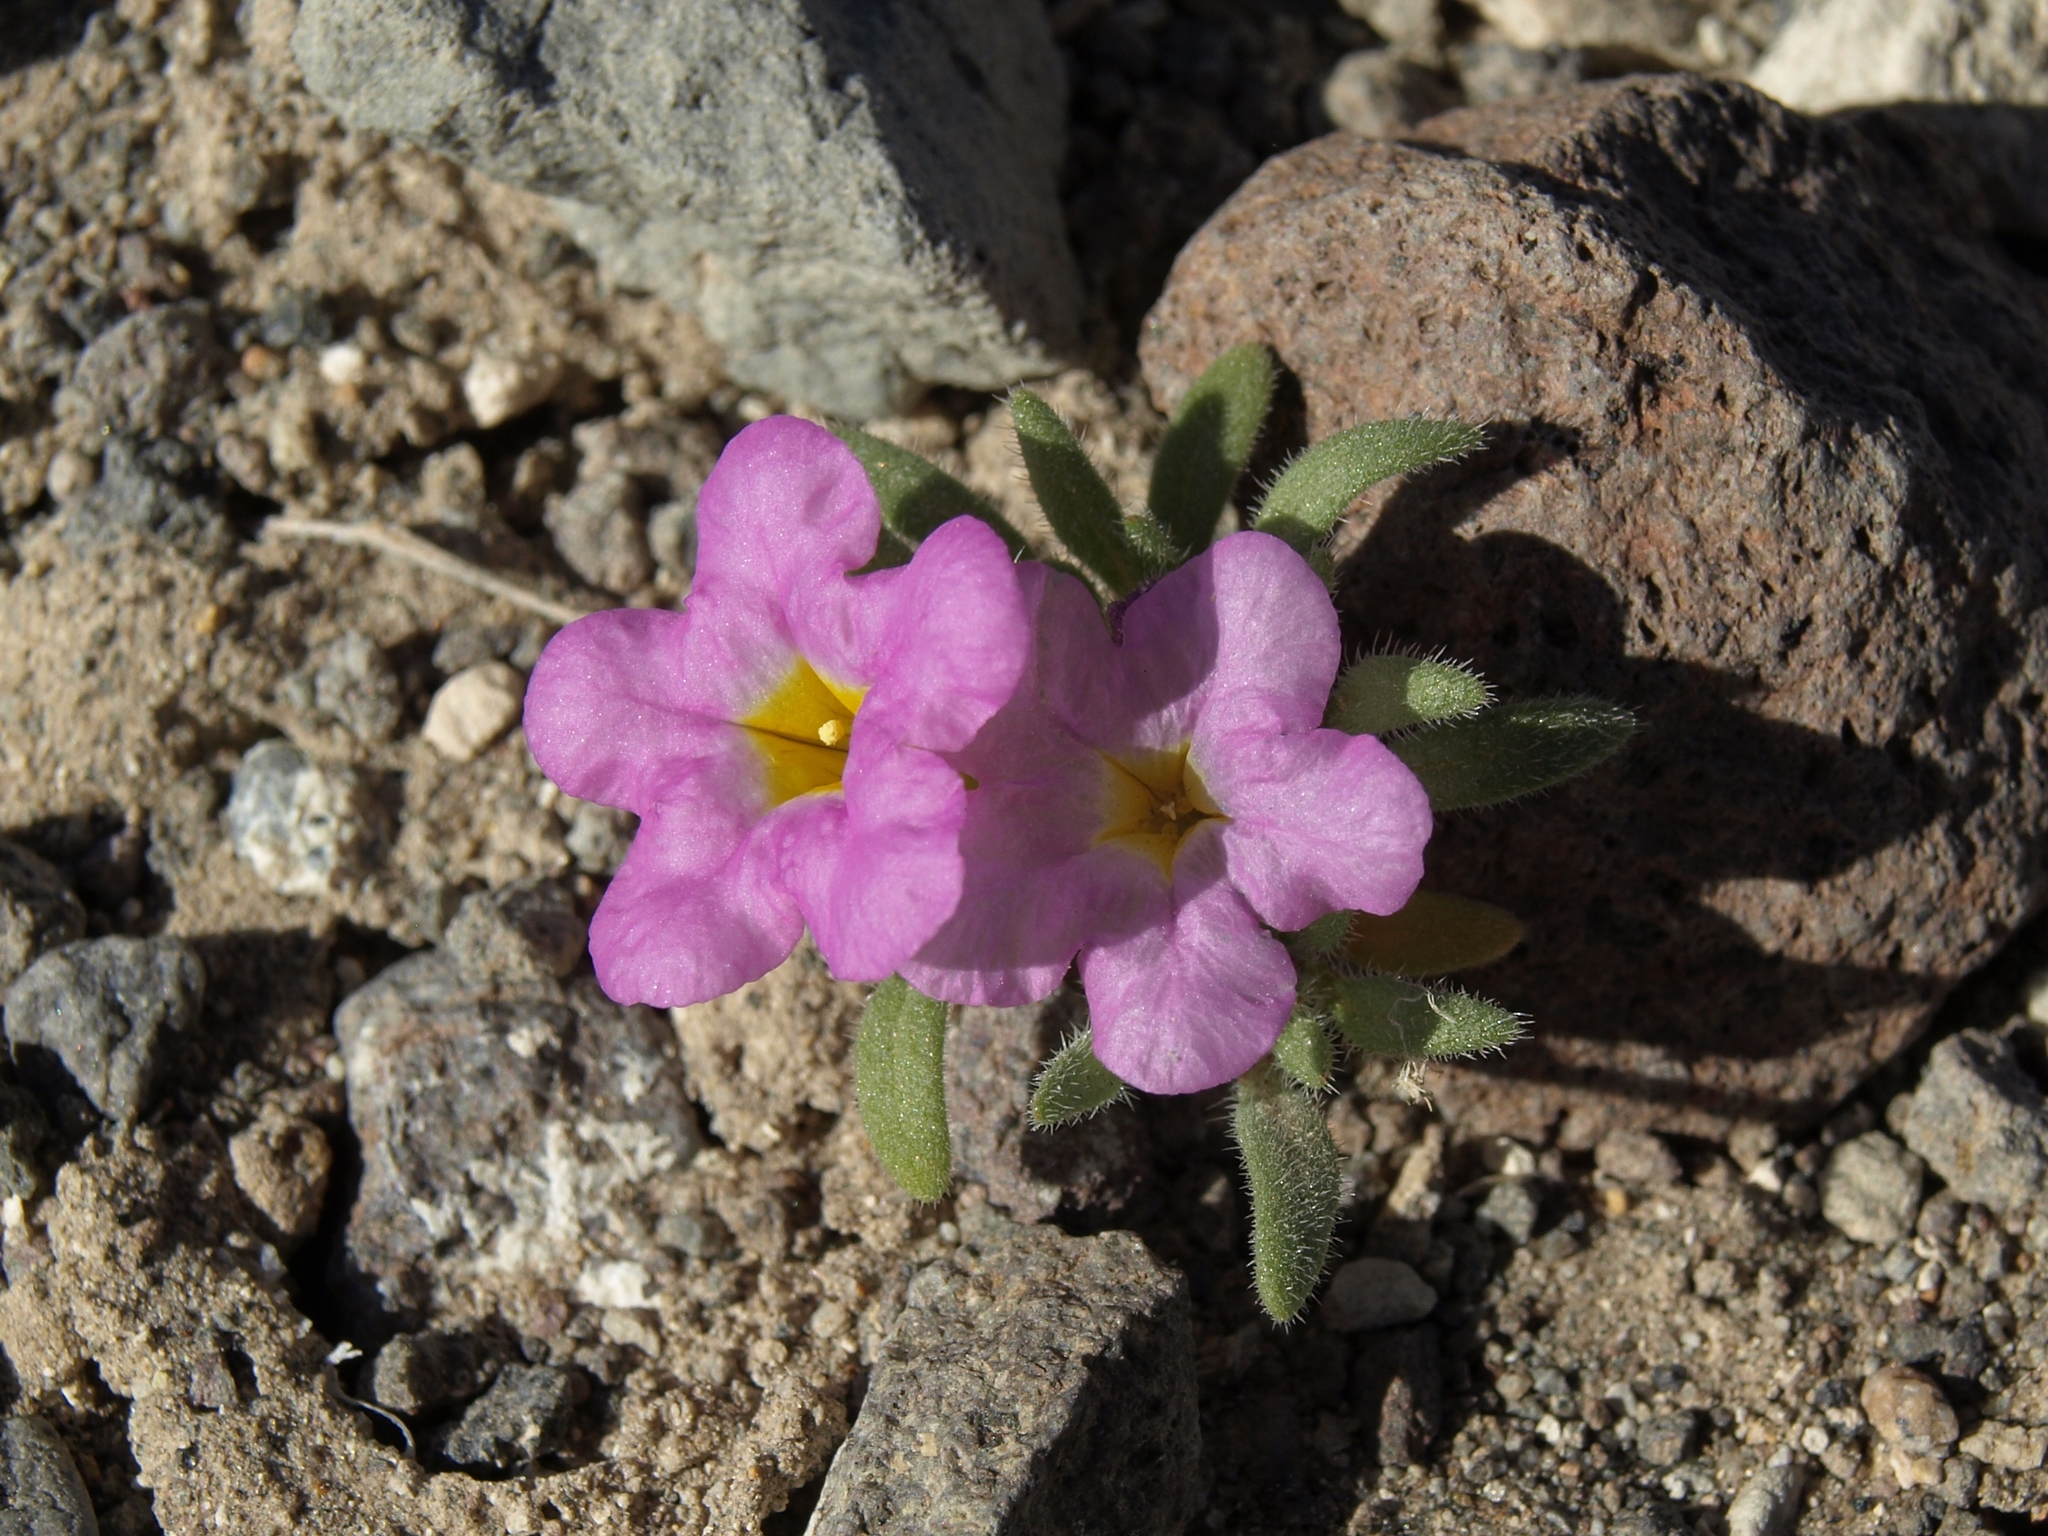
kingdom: Plantae
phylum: Tracheophyta
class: Magnoliopsida
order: Boraginales
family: Namaceae
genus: Nama
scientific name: Nama aretioides
